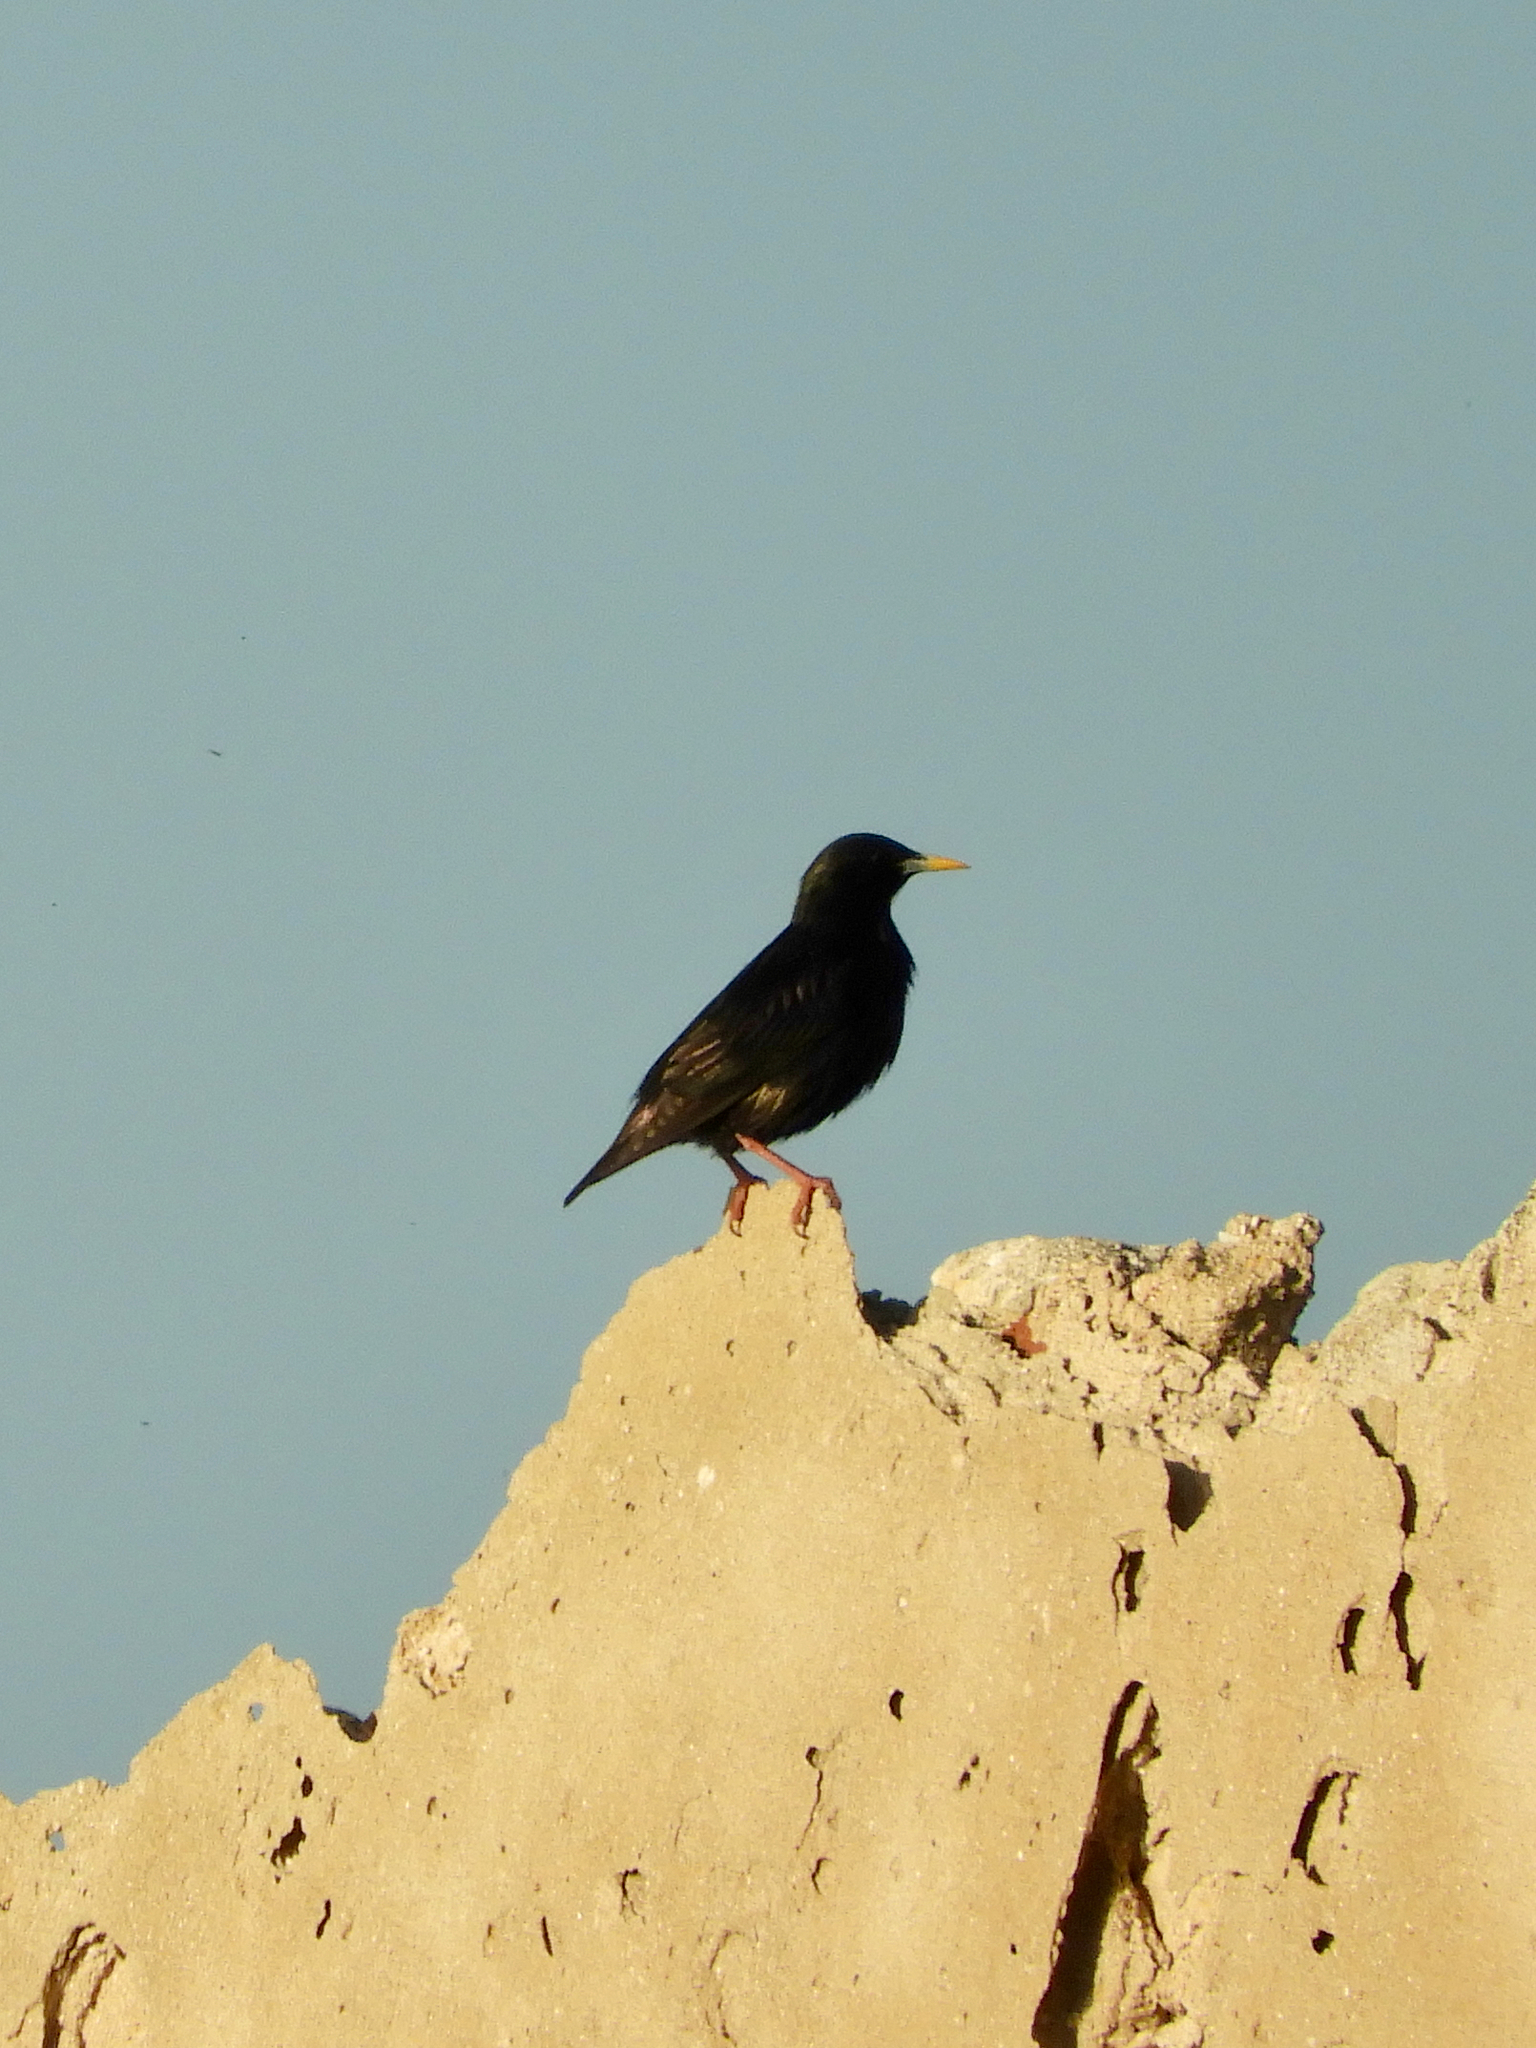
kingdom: Animalia
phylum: Chordata
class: Aves
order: Passeriformes
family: Sturnidae
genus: Sturnus
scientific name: Sturnus unicolor
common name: Spotless starling
